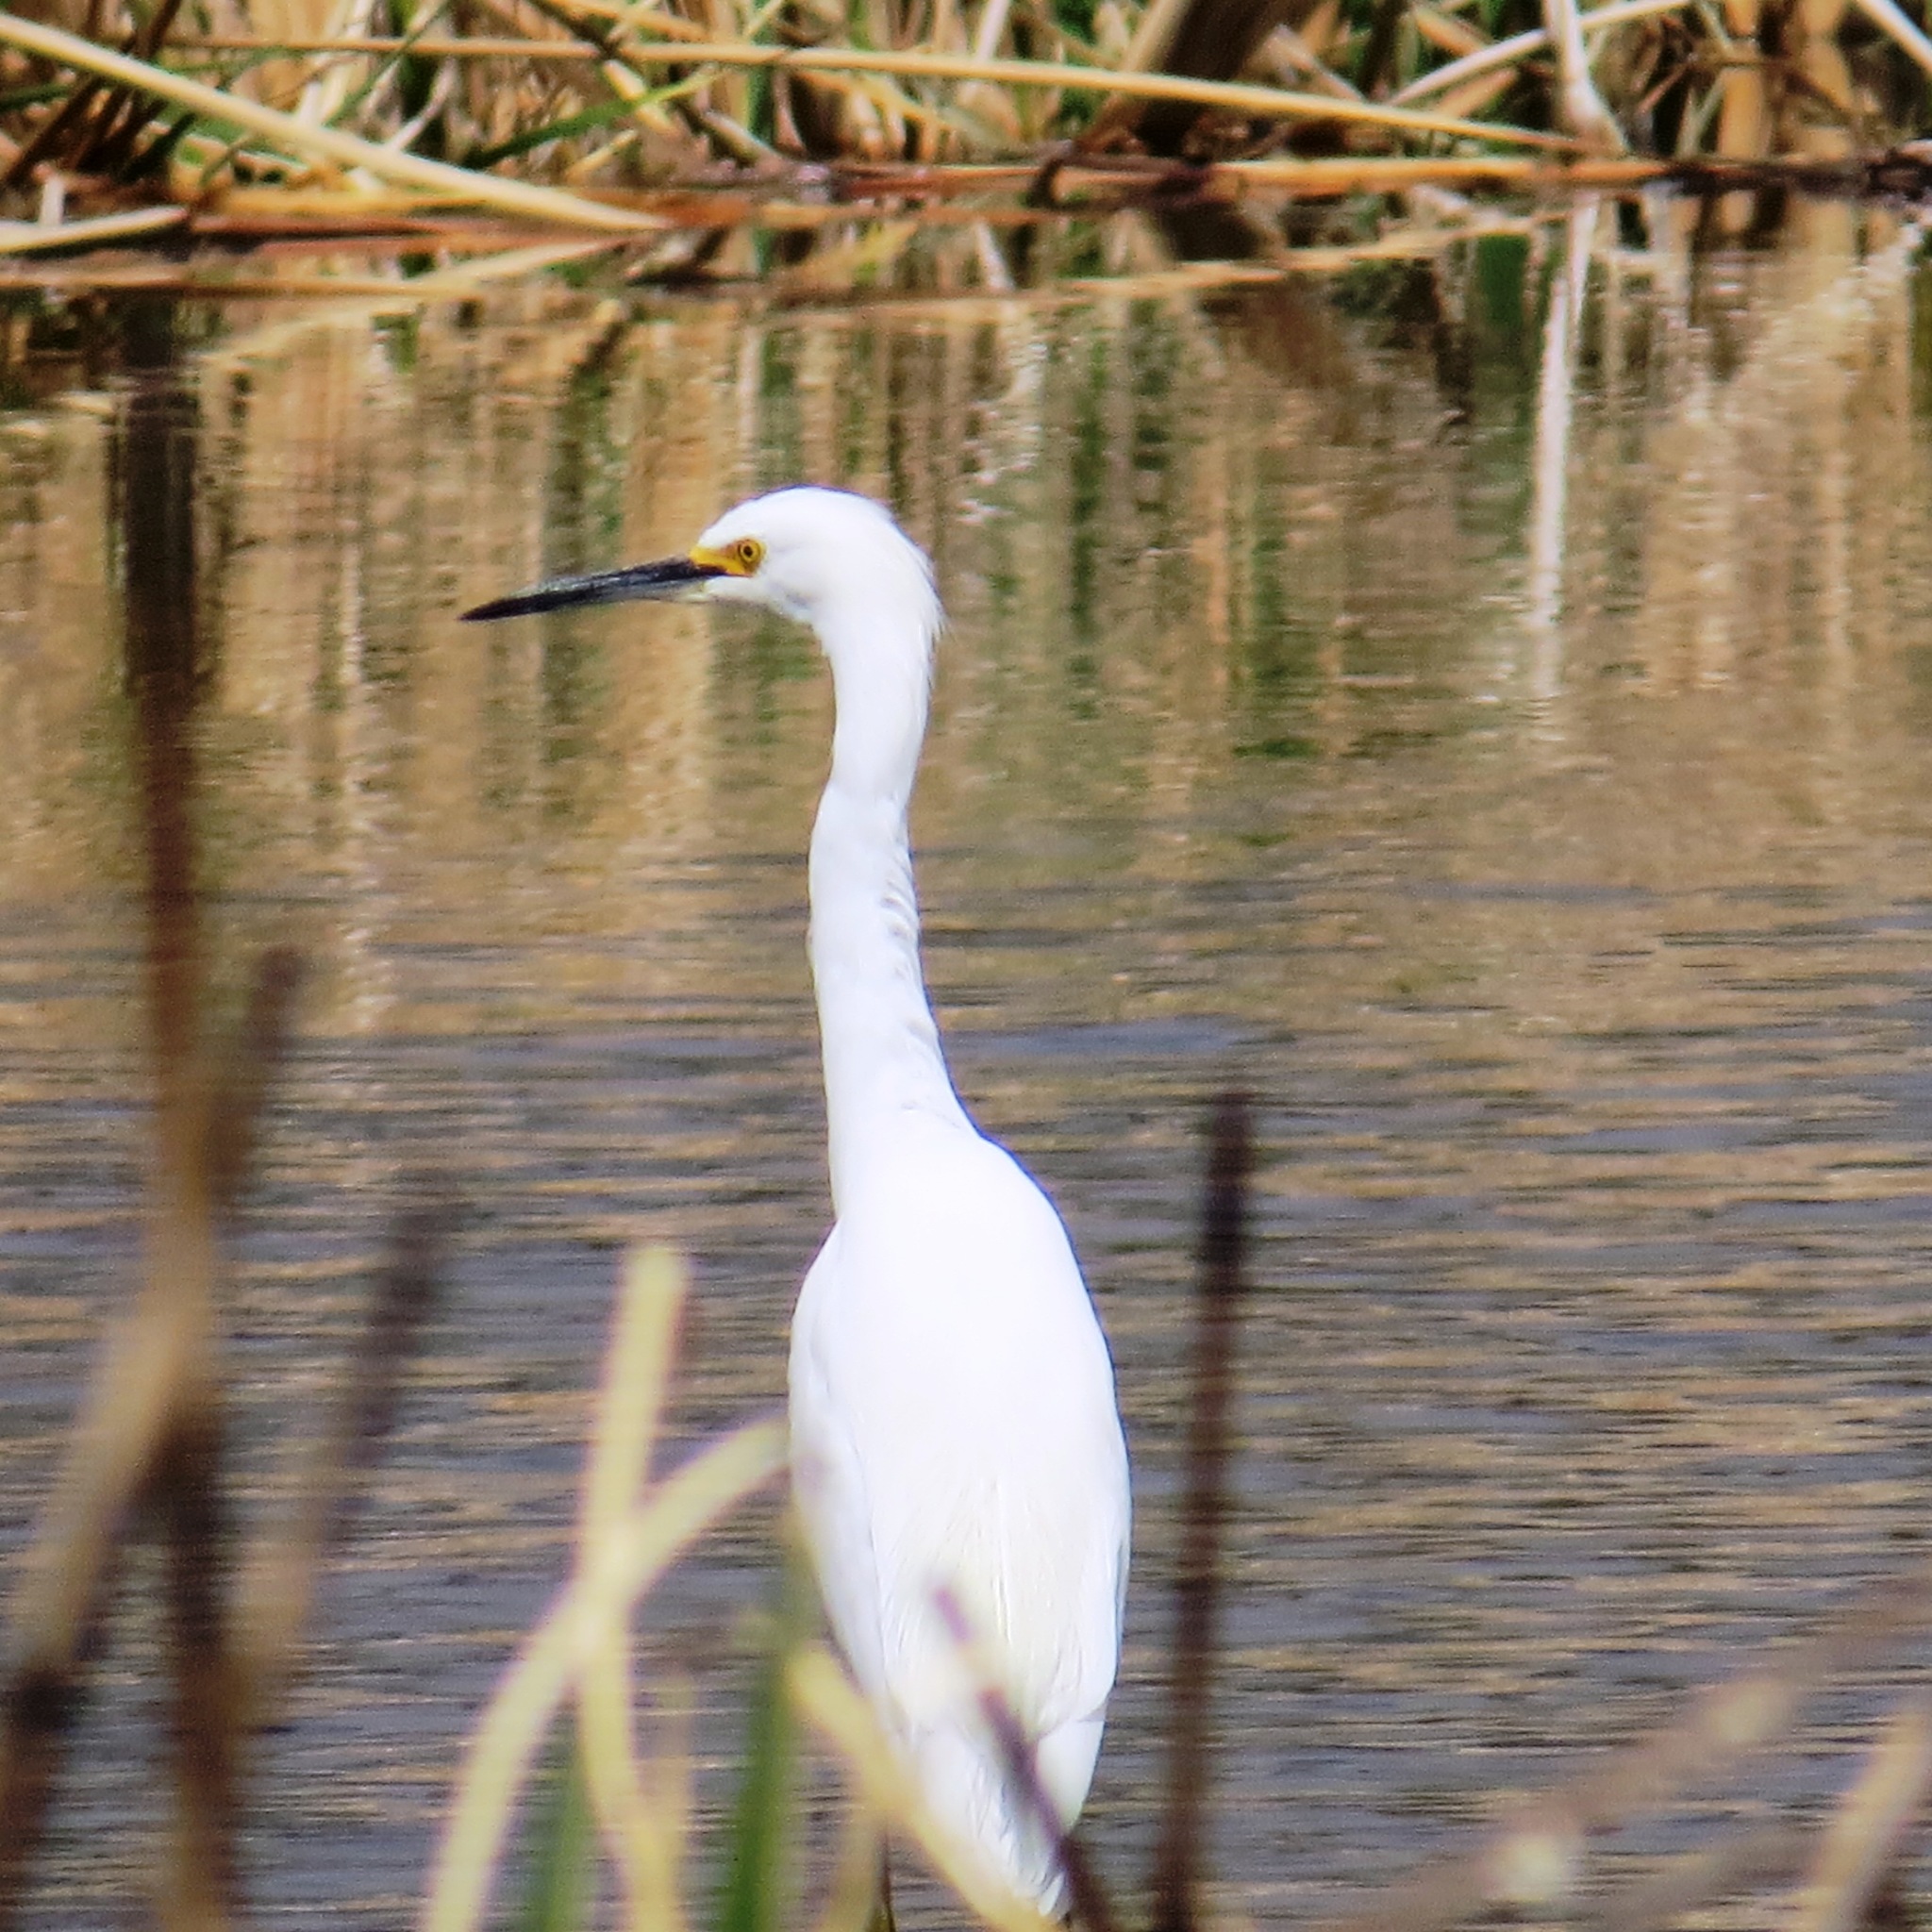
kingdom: Animalia
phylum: Chordata
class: Aves
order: Pelecaniformes
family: Ardeidae
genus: Egretta
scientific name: Egretta thula
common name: Snowy egret
